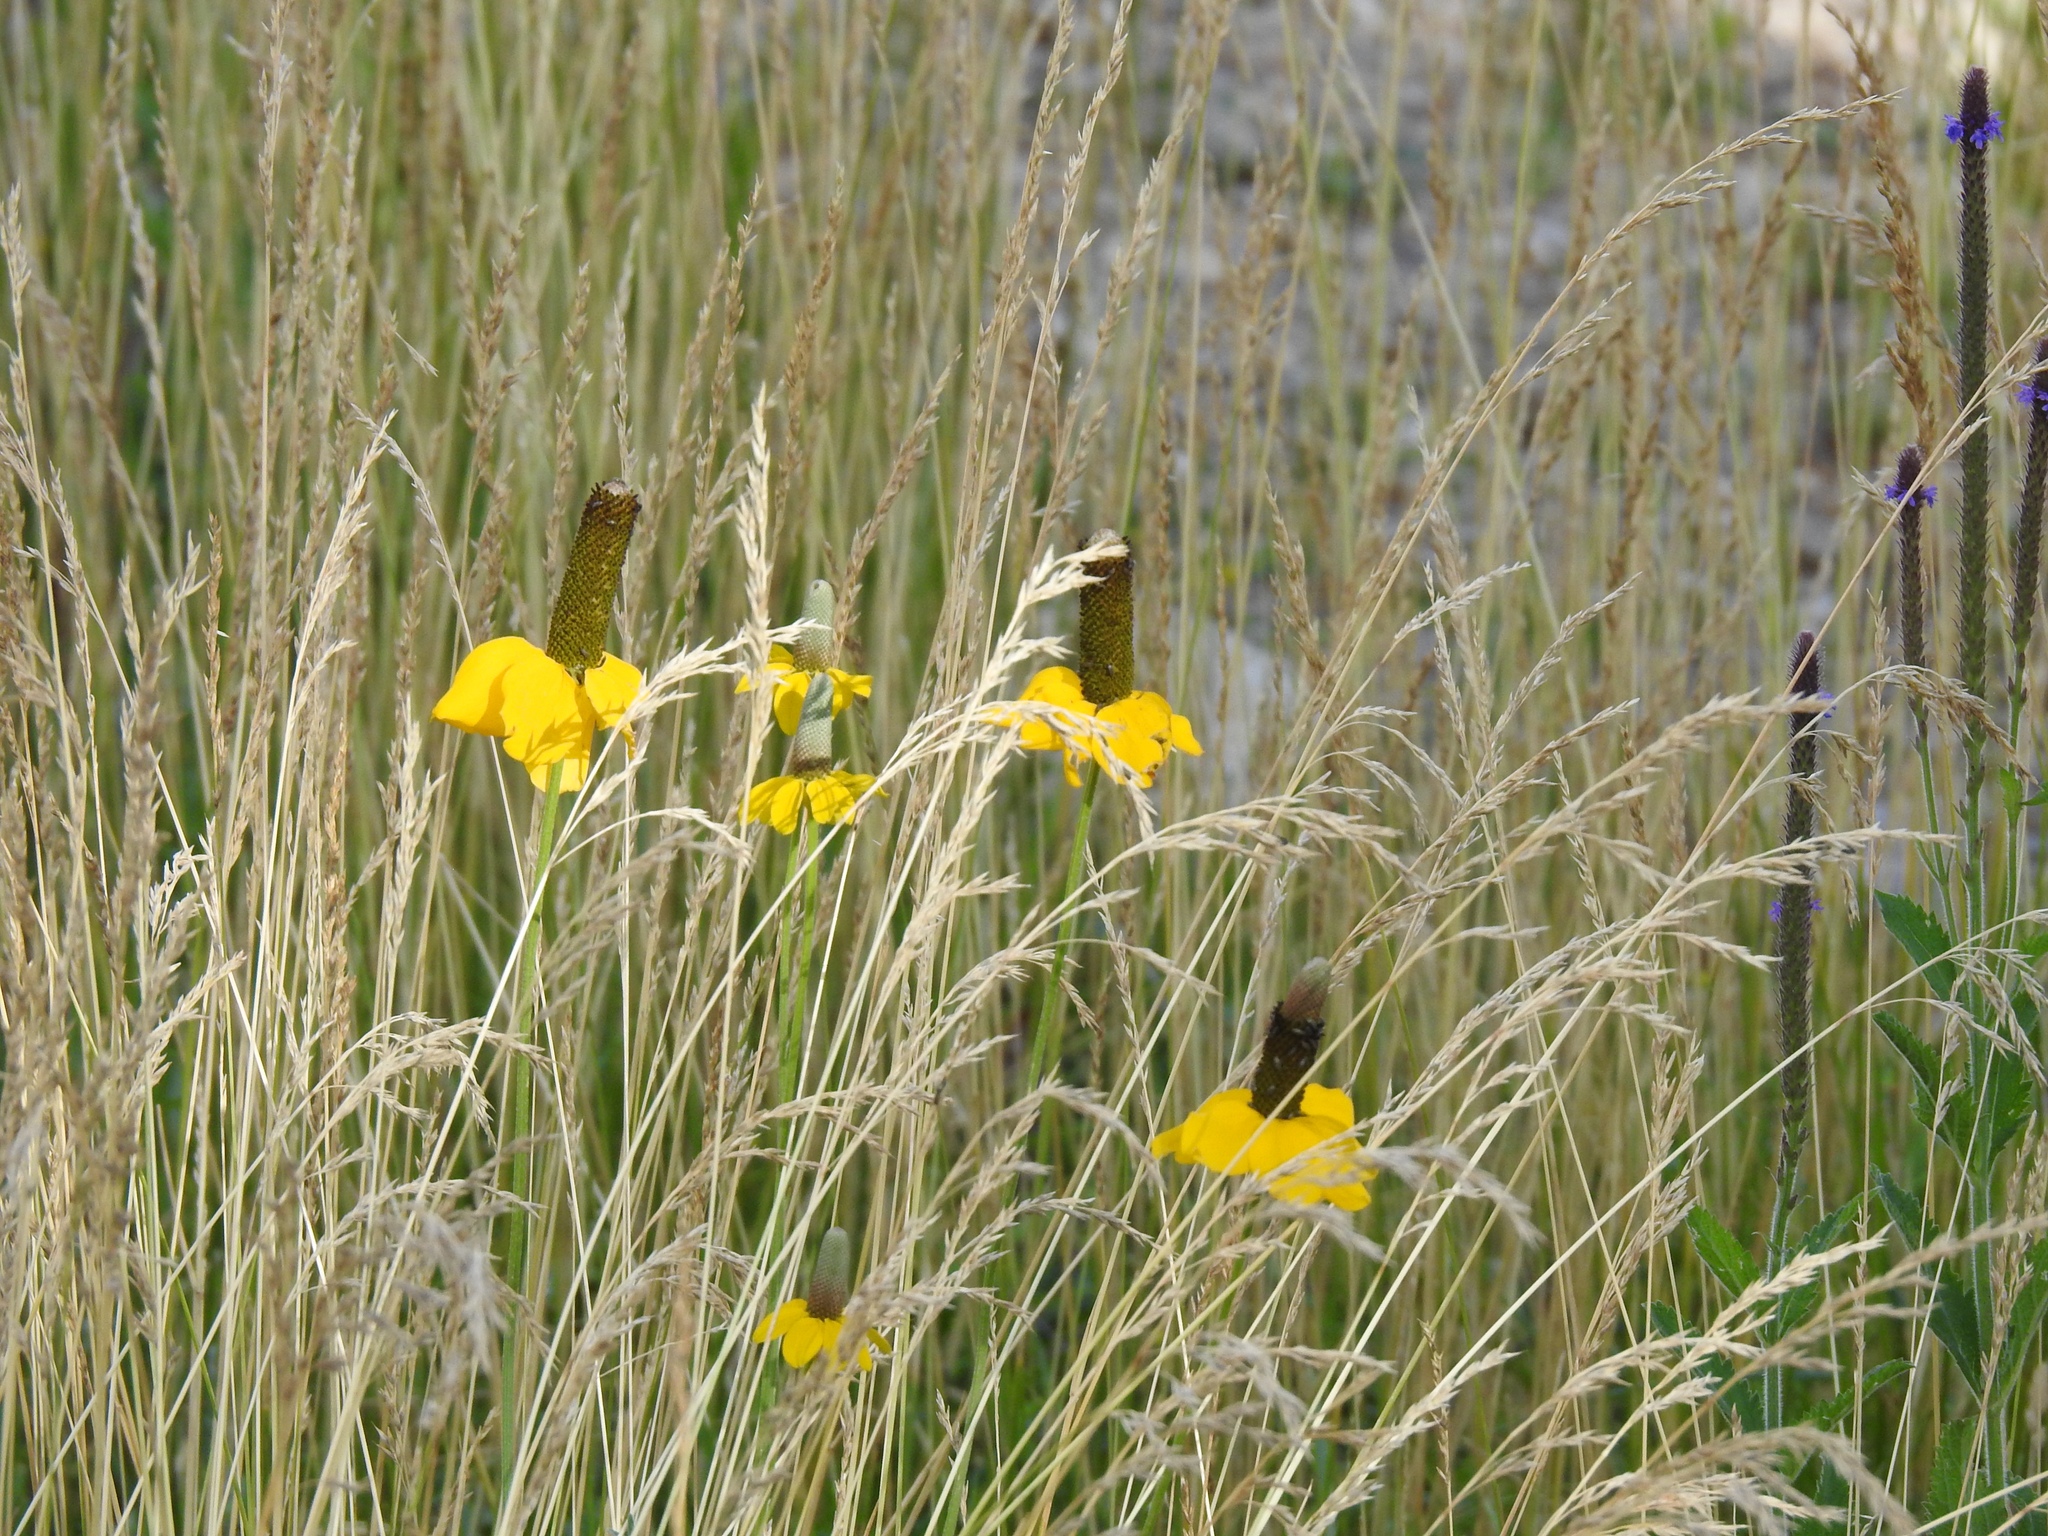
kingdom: Plantae
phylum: Tracheophyta
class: Magnoliopsida
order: Asterales
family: Asteraceae
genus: Ratibida
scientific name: Ratibida columnifera
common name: Prairie coneflower
